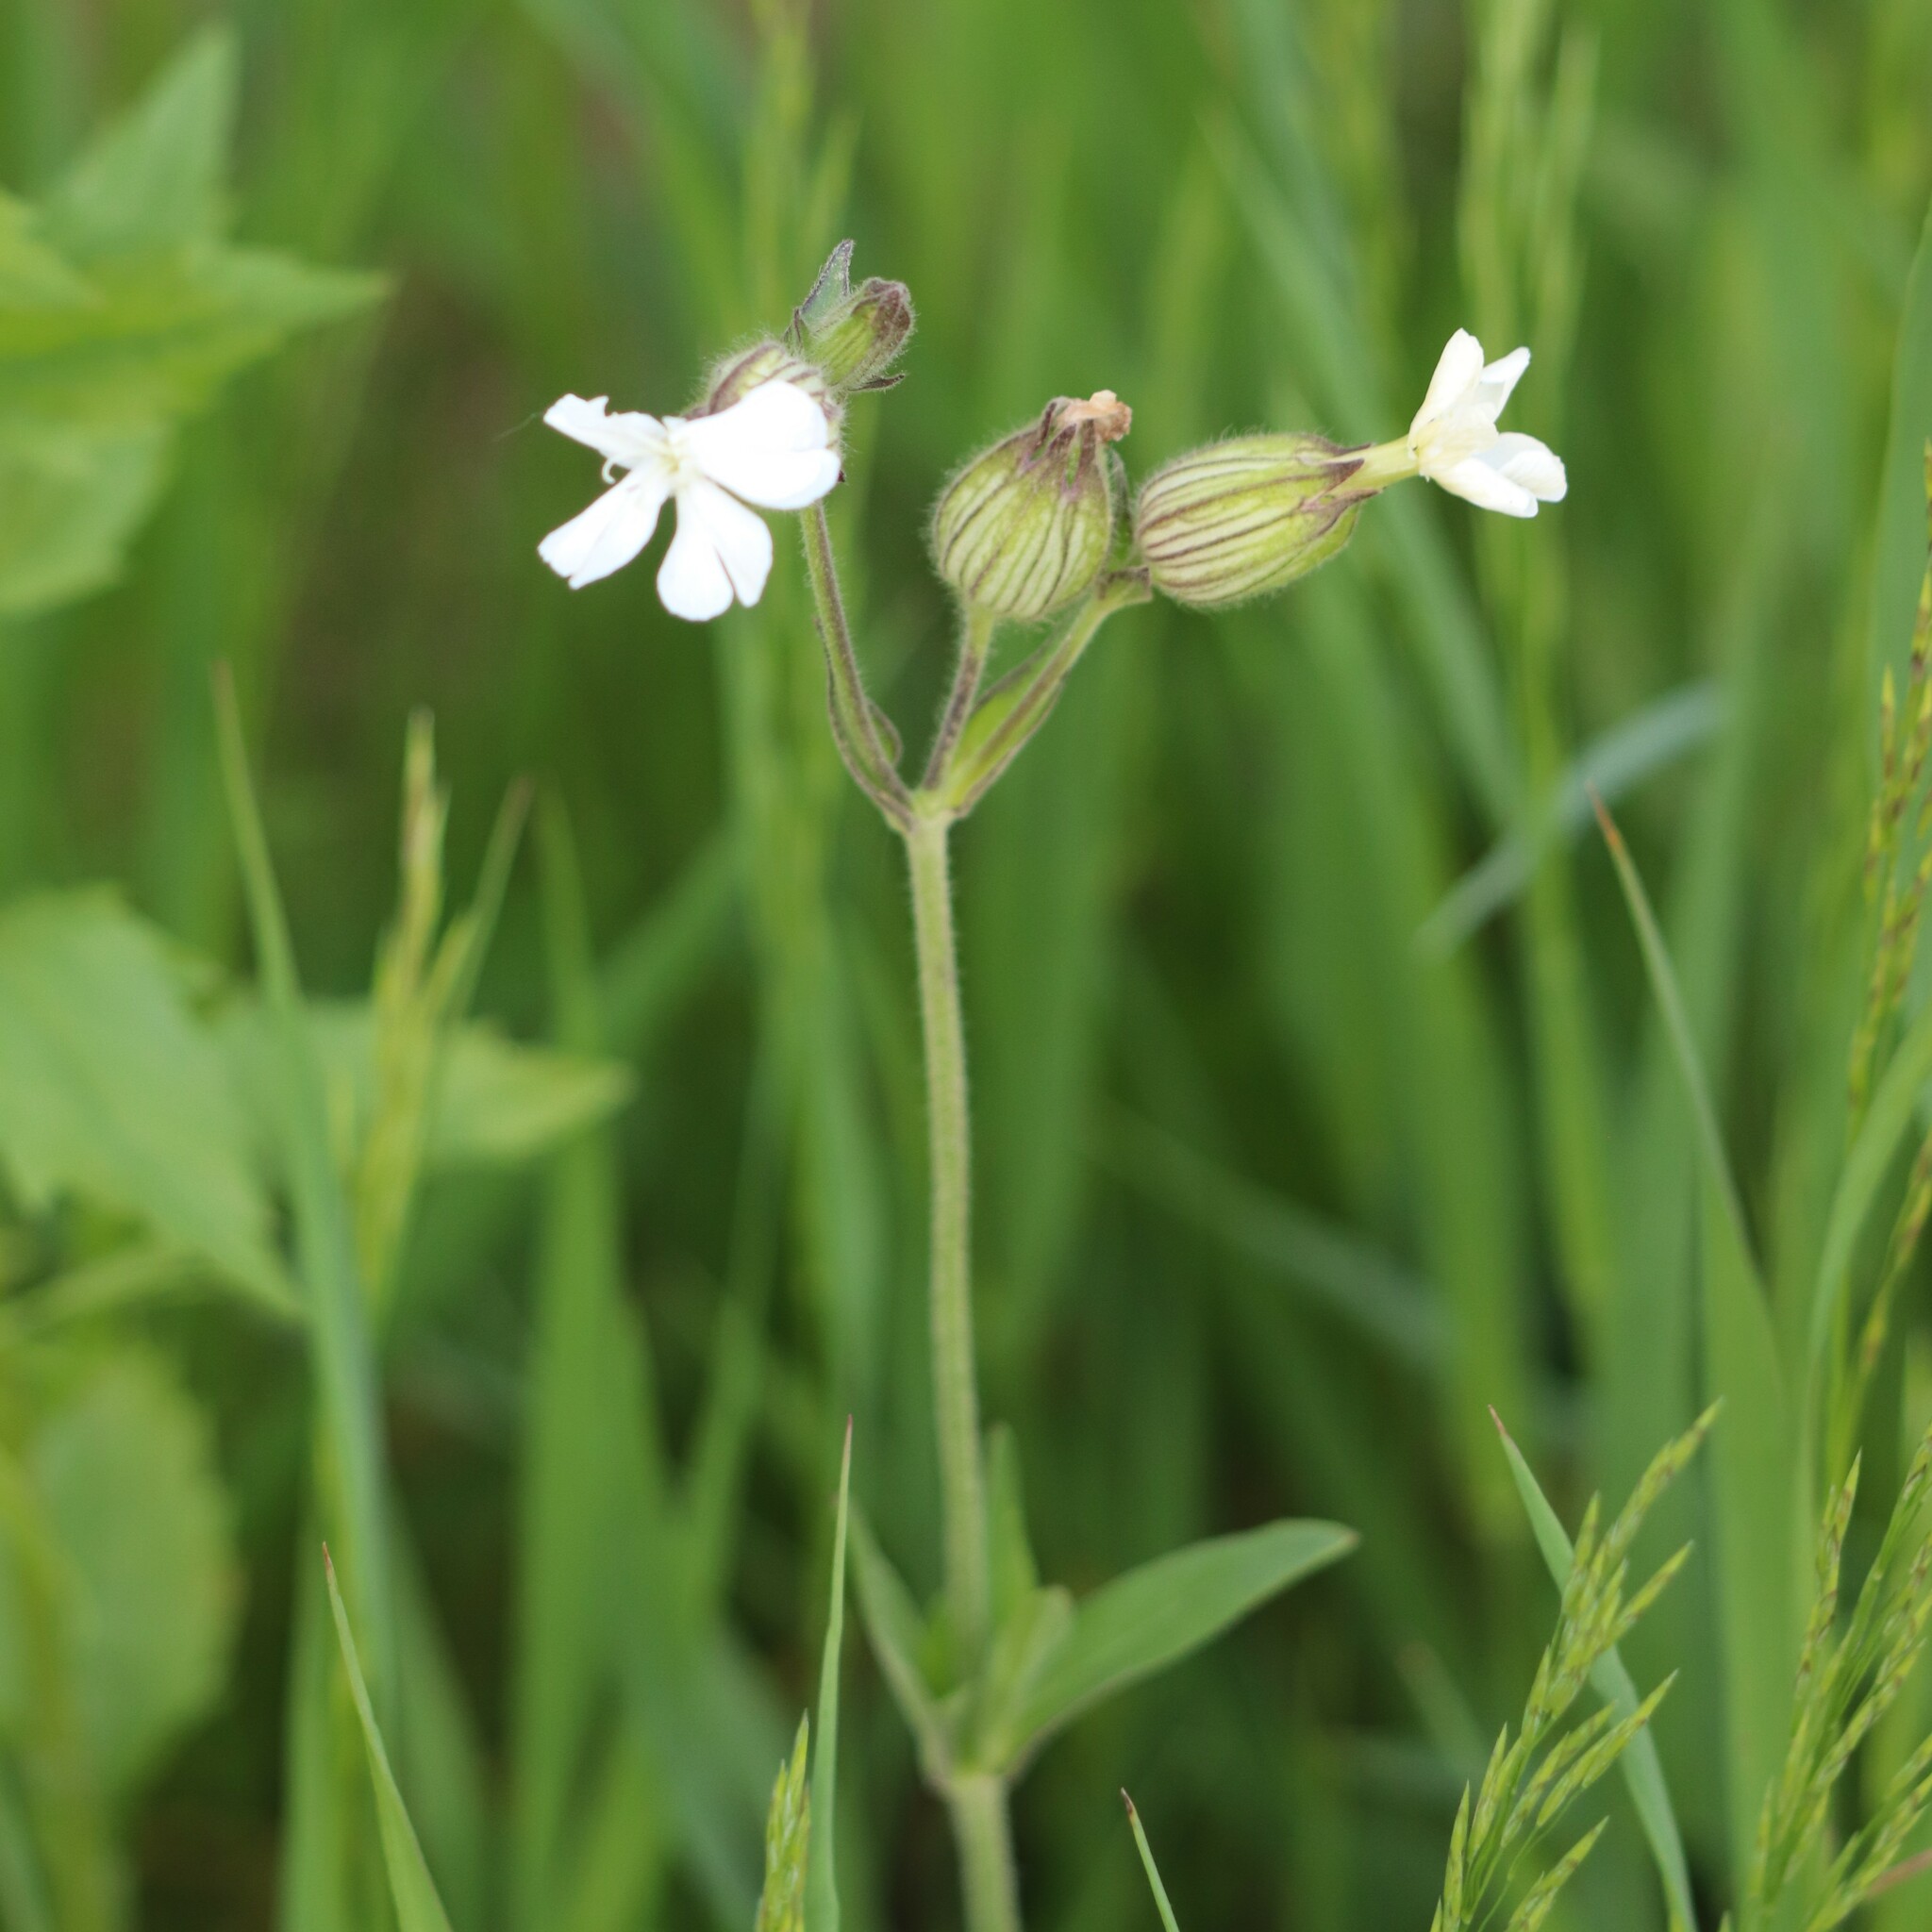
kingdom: Plantae
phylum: Tracheophyta
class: Magnoliopsida
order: Caryophyllales
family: Caryophyllaceae
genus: Silene
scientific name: Silene latifolia
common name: White campion
